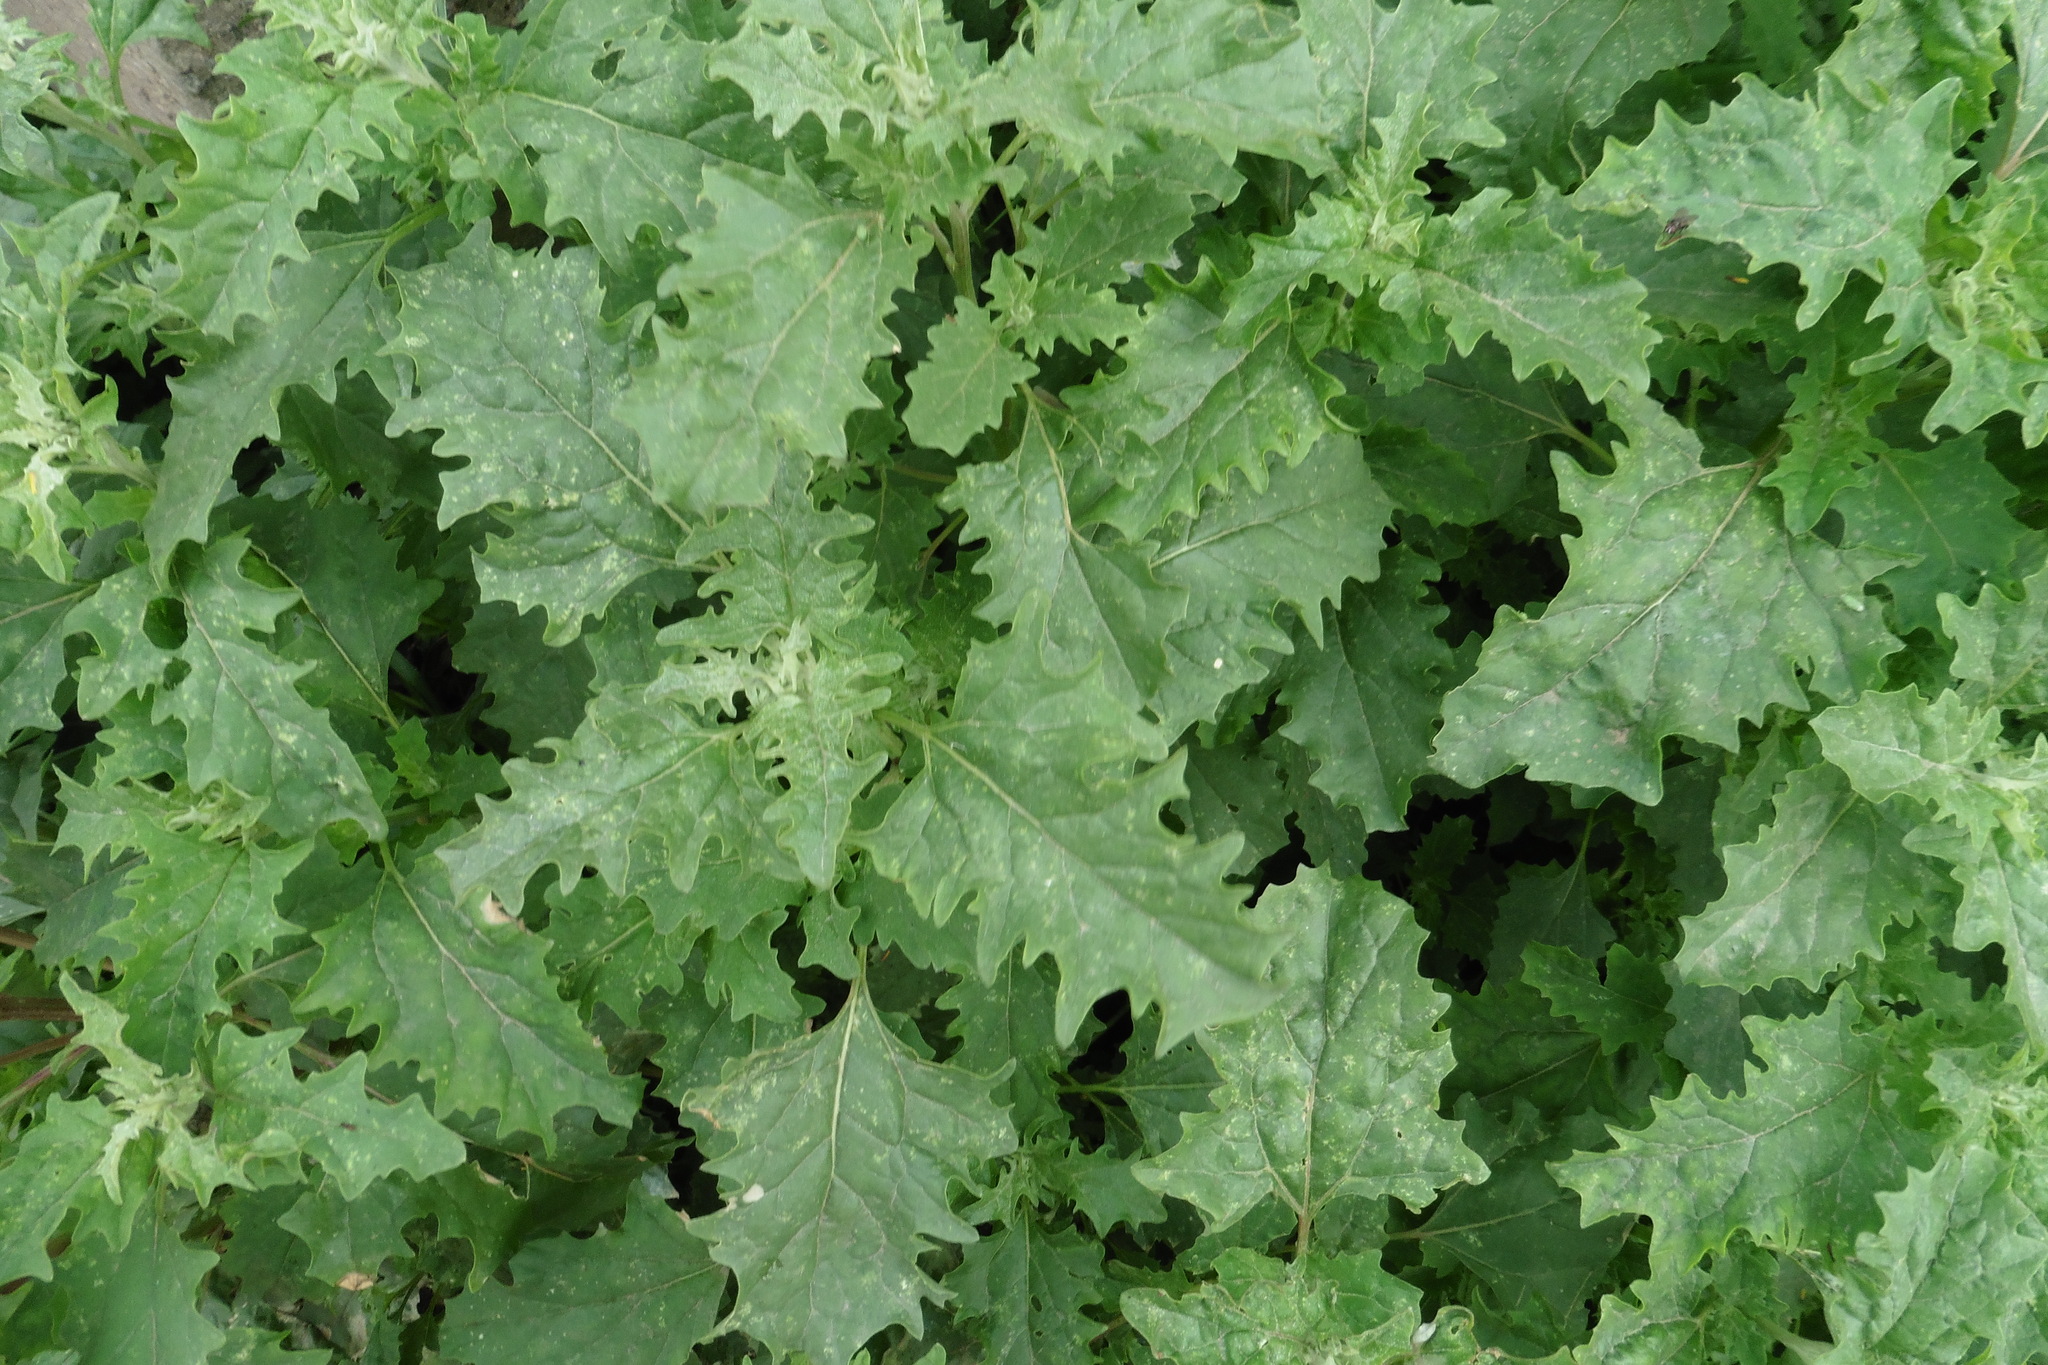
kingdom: Plantae
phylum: Tracheophyta
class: Magnoliopsida
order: Caryophyllales
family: Amaranthaceae
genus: Atriplex
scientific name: Atriplex tatarica
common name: Tatarian orache
